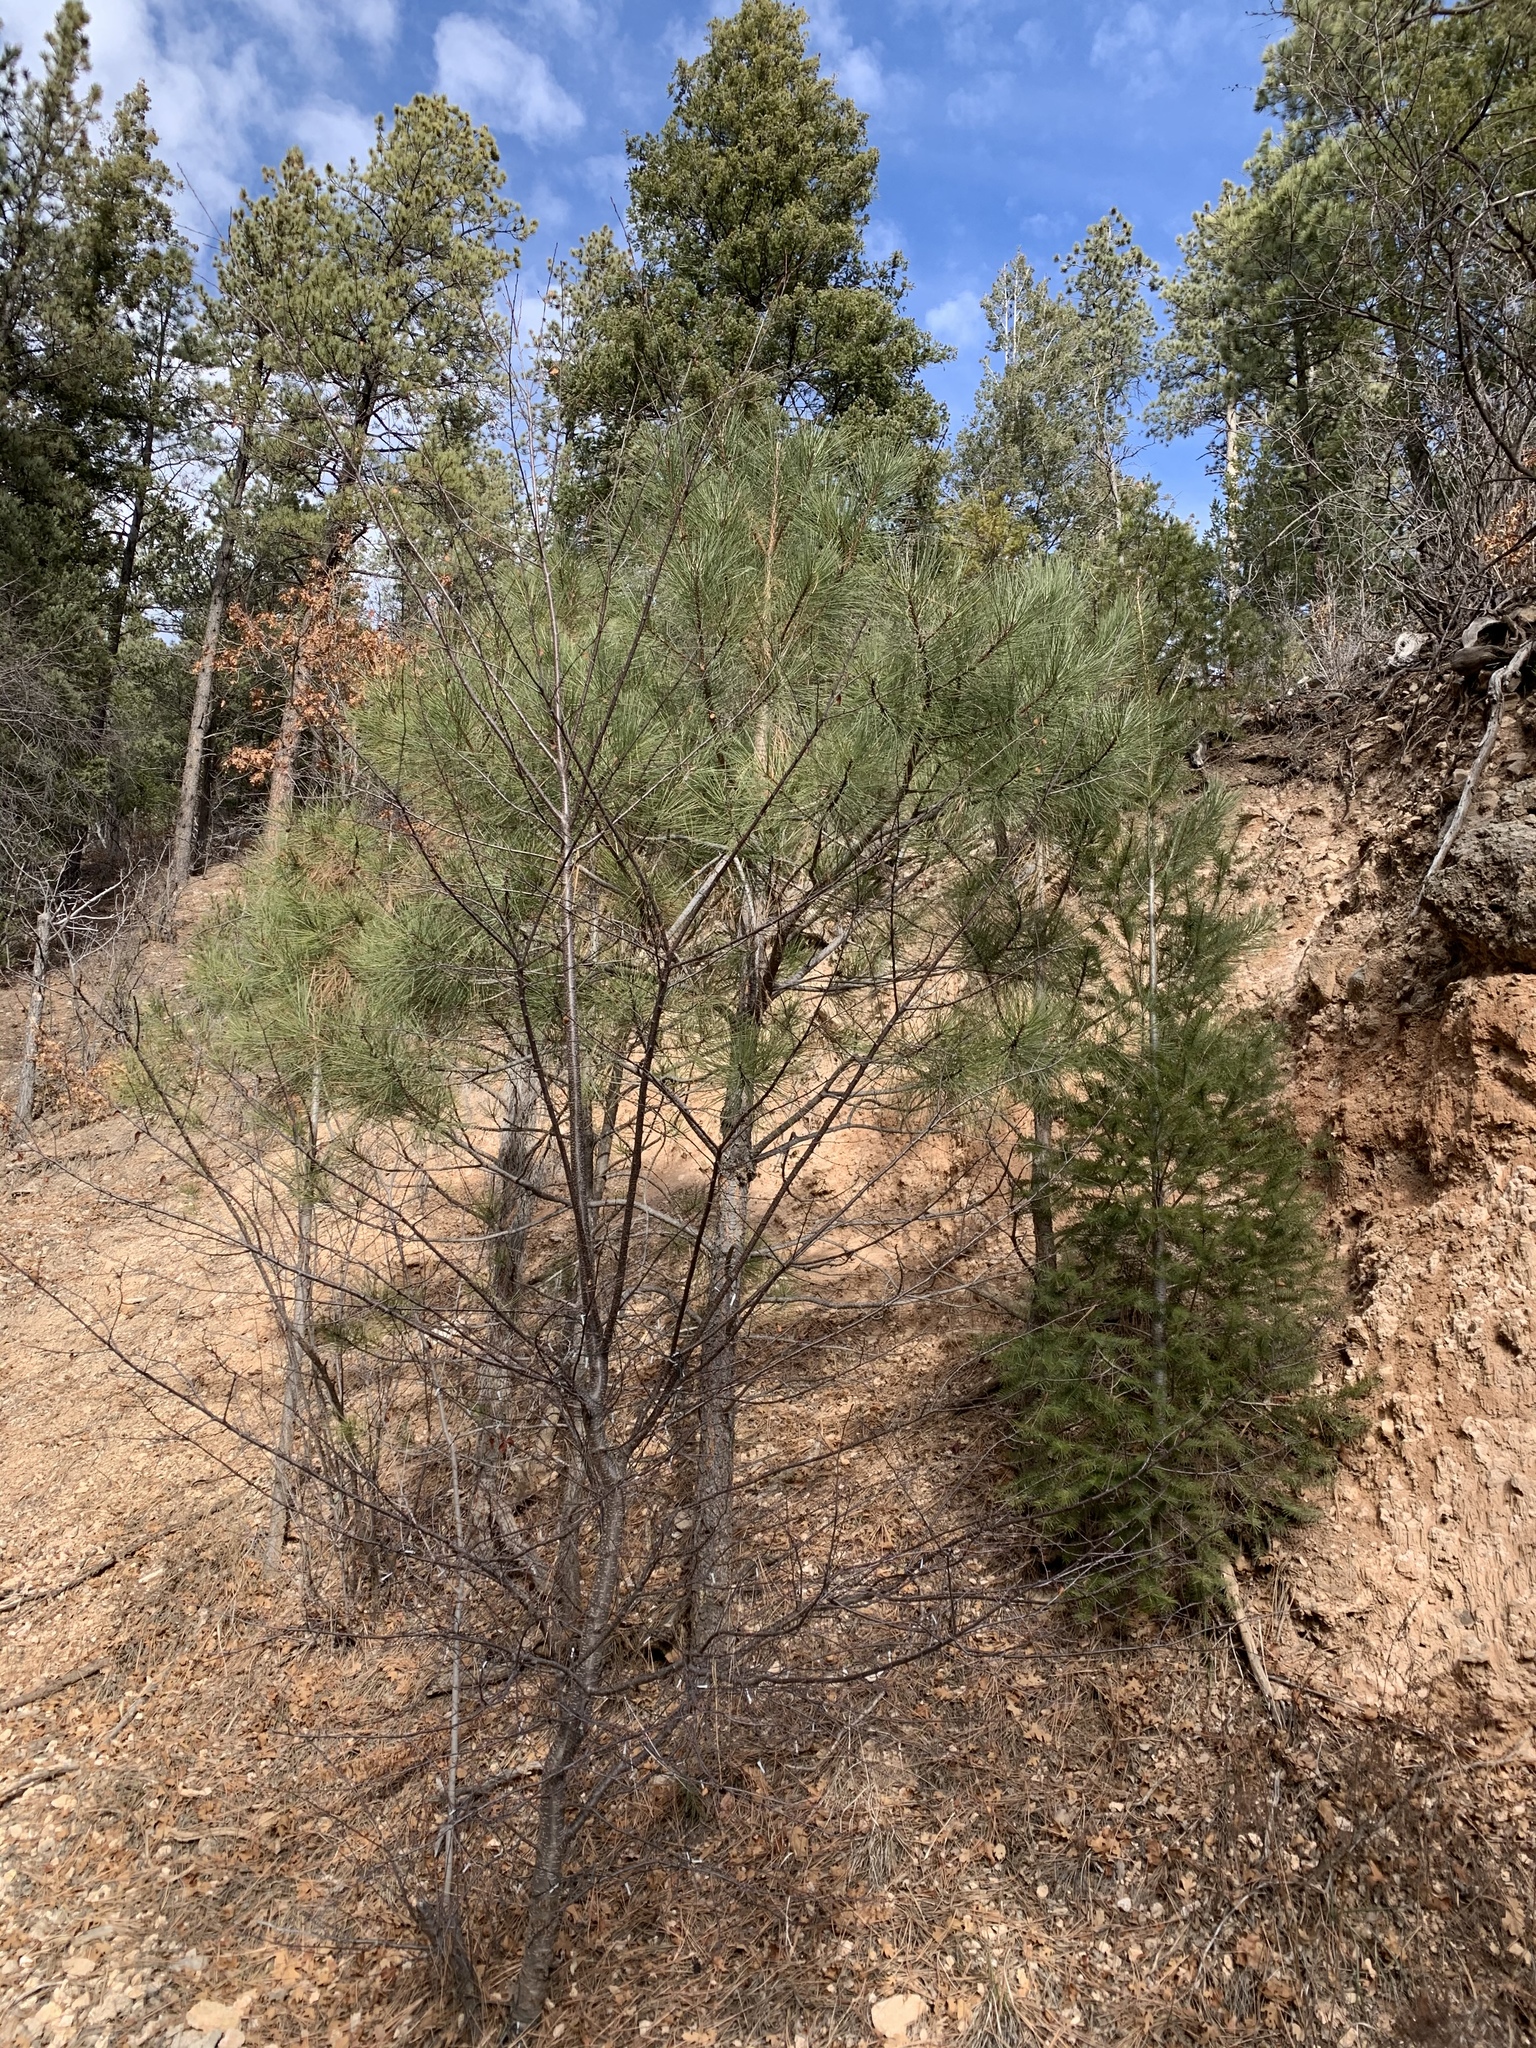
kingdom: Plantae
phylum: Tracheophyta
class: Pinopsida
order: Pinales
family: Pinaceae
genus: Pinus
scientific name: Pinus ponderosa
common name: Western yellow-pine
